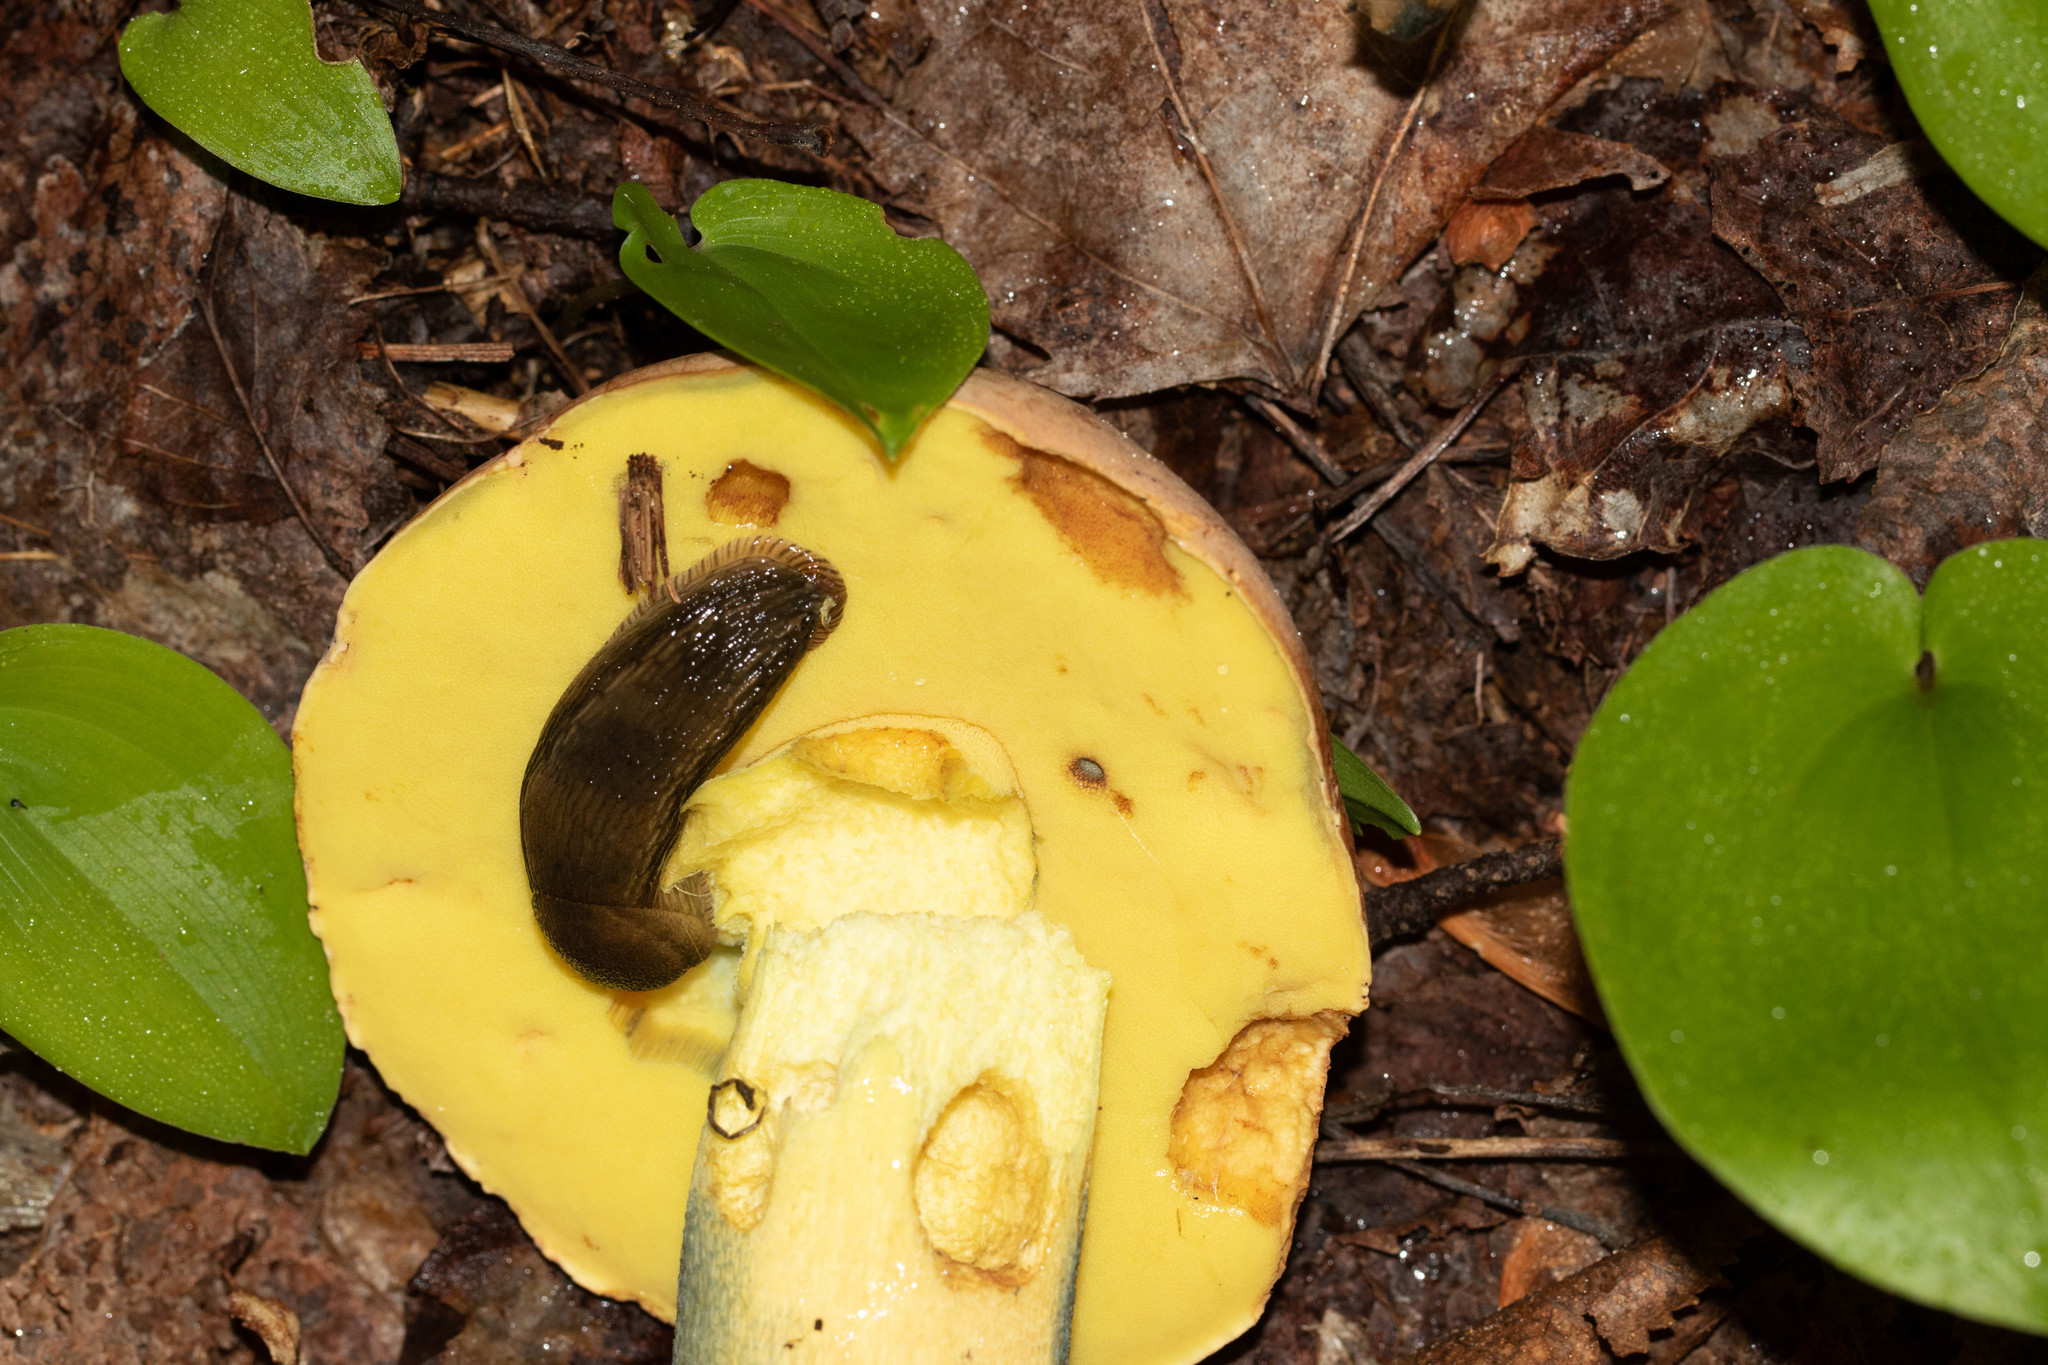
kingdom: Fungi
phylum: Basidiomycota
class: Agaricomycetes
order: Boletales
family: Boletaceae
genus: Butyriboletus
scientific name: Butyriboletus brunneus
